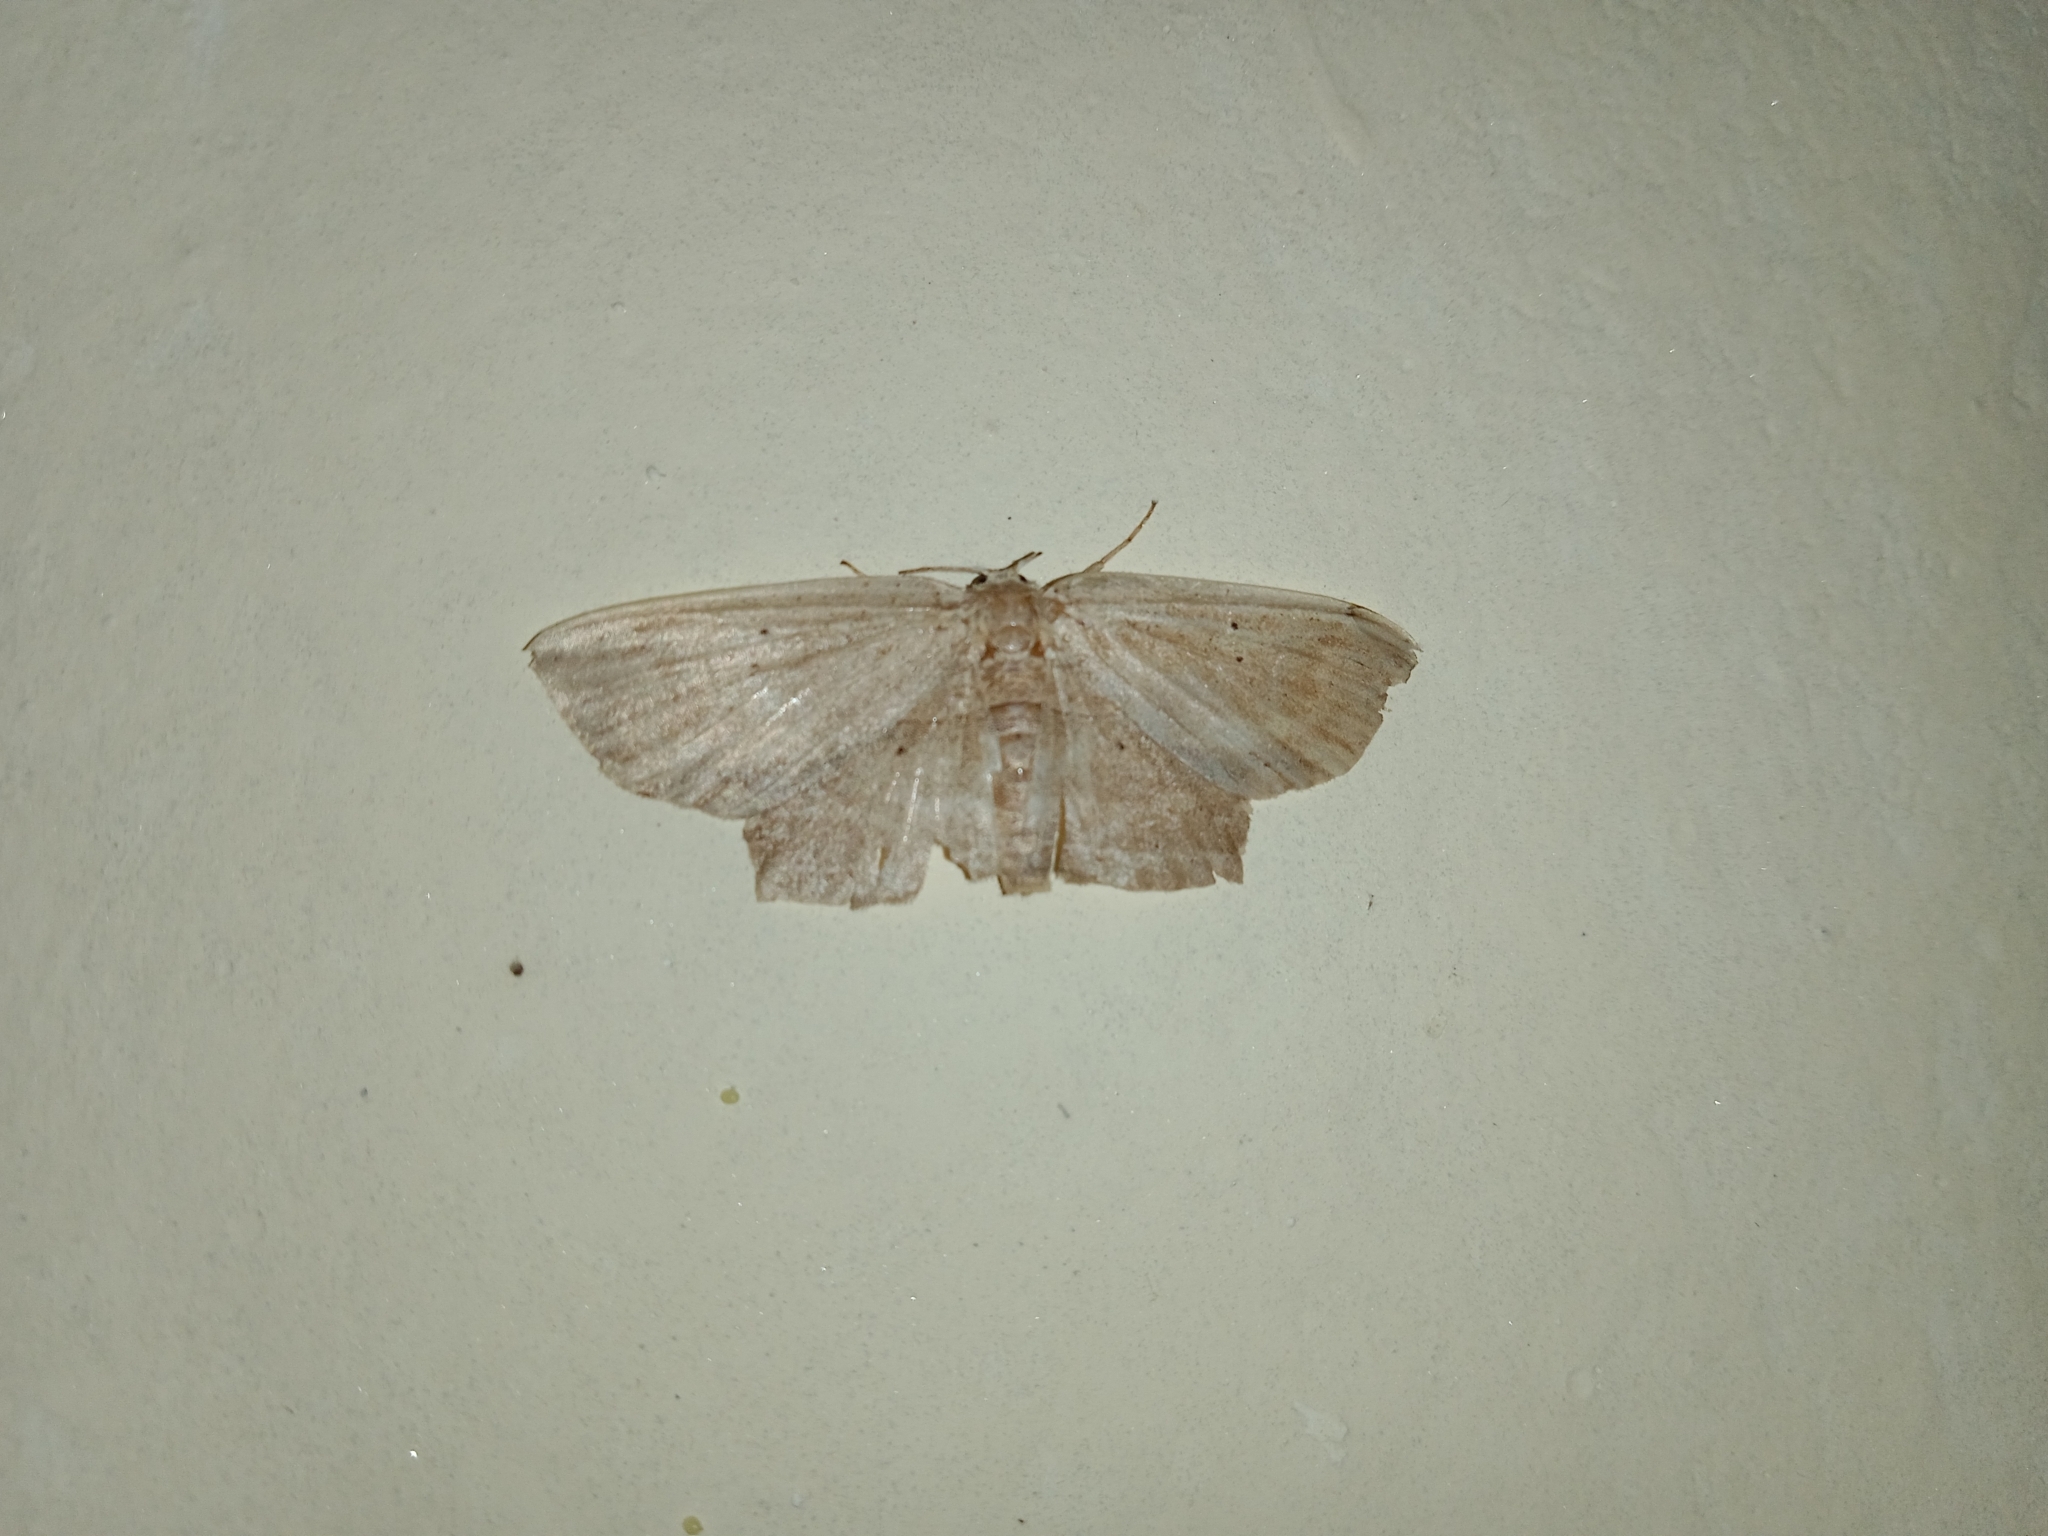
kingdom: Animalia
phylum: Arthropoda
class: Insecta
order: Lepidoptera
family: Drepanidae
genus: Phalacra
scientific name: Phalacra vidhisara
